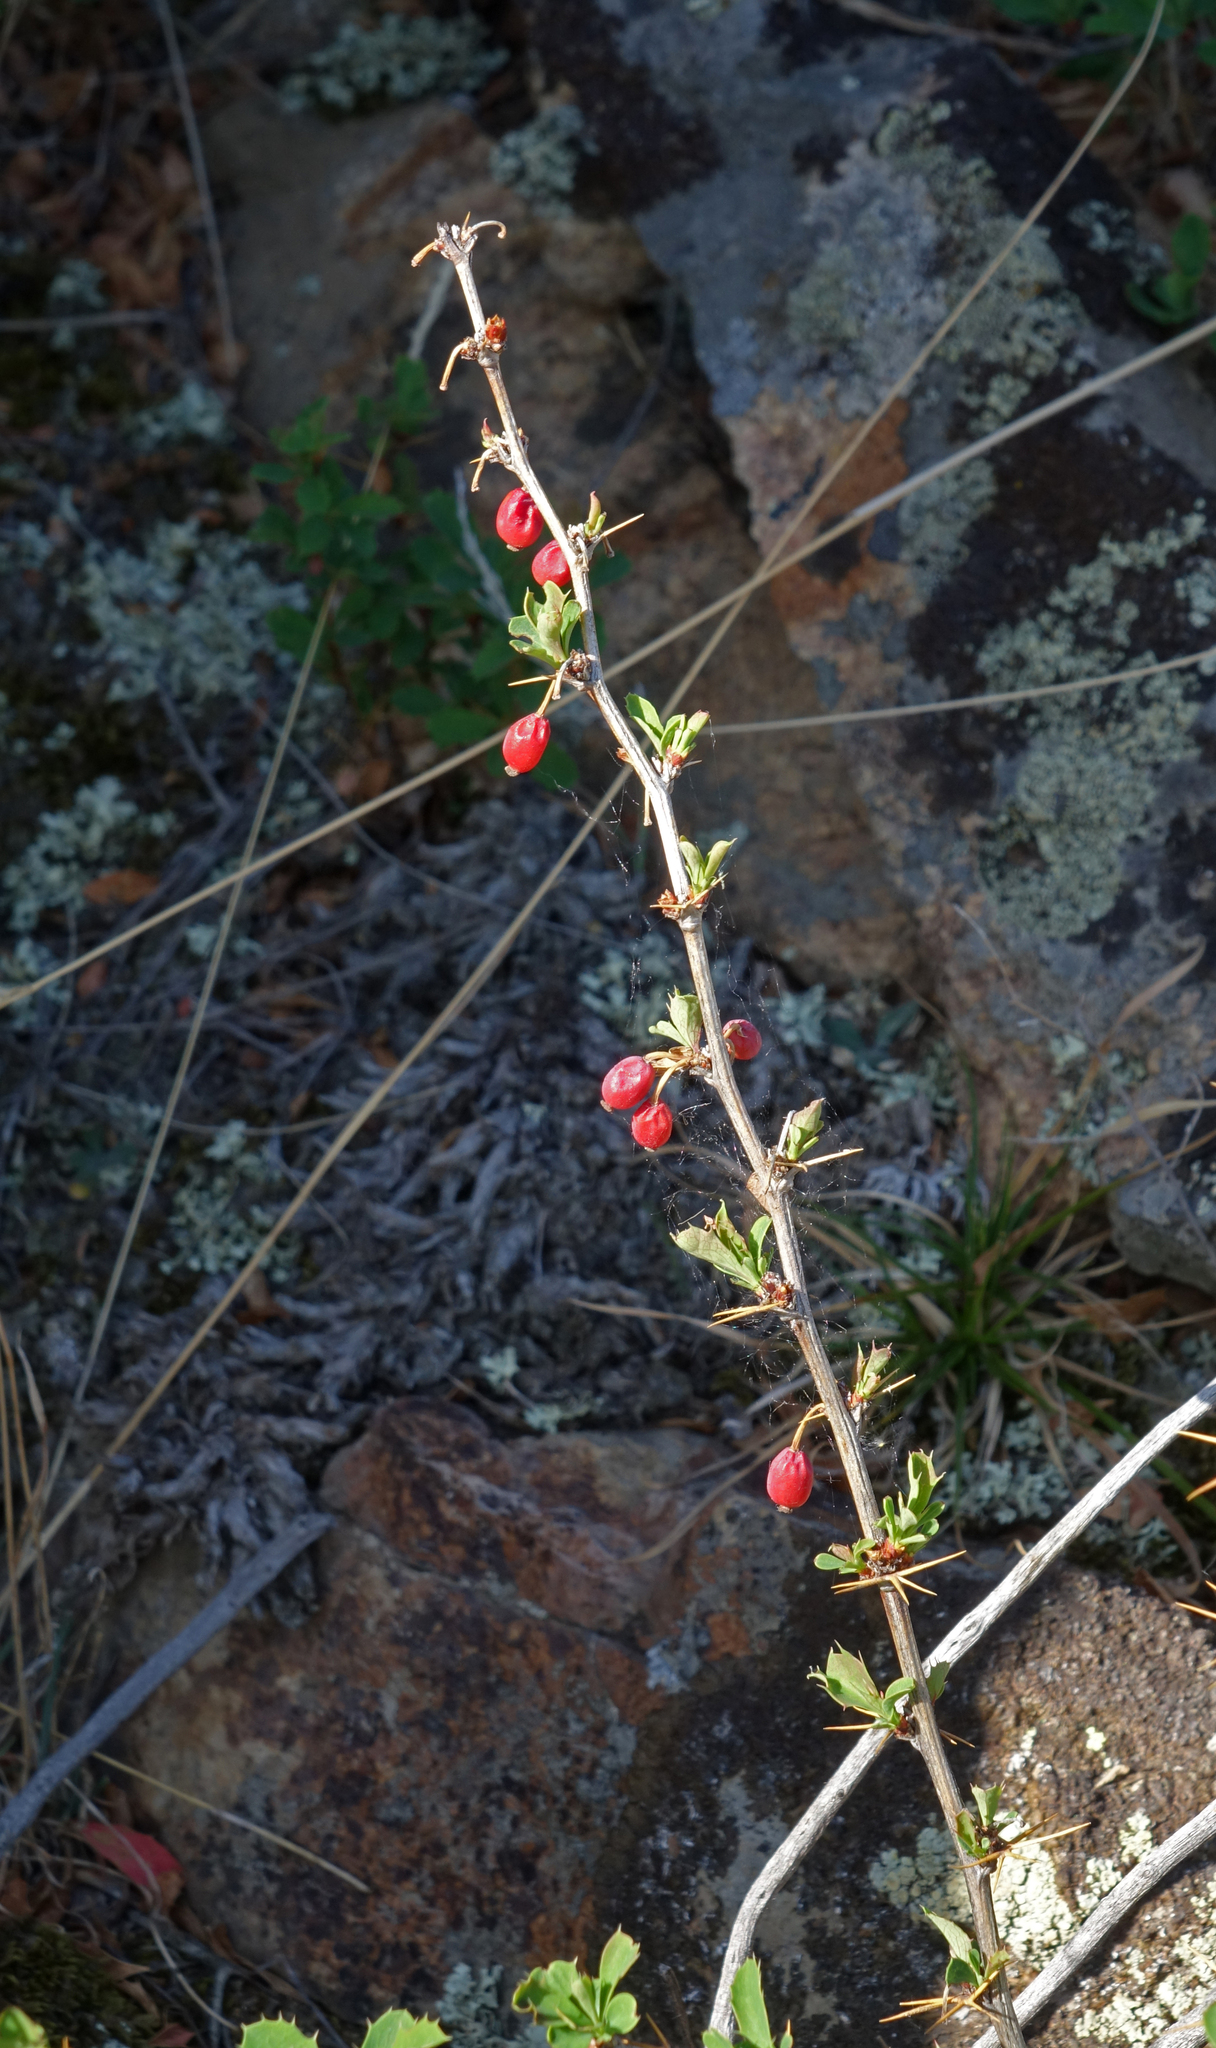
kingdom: Plantae
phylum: Tracheophyta
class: Magnoliopsida
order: Ranunculales
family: Berberidaceae
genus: Berberis
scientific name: Berberis sibirica
